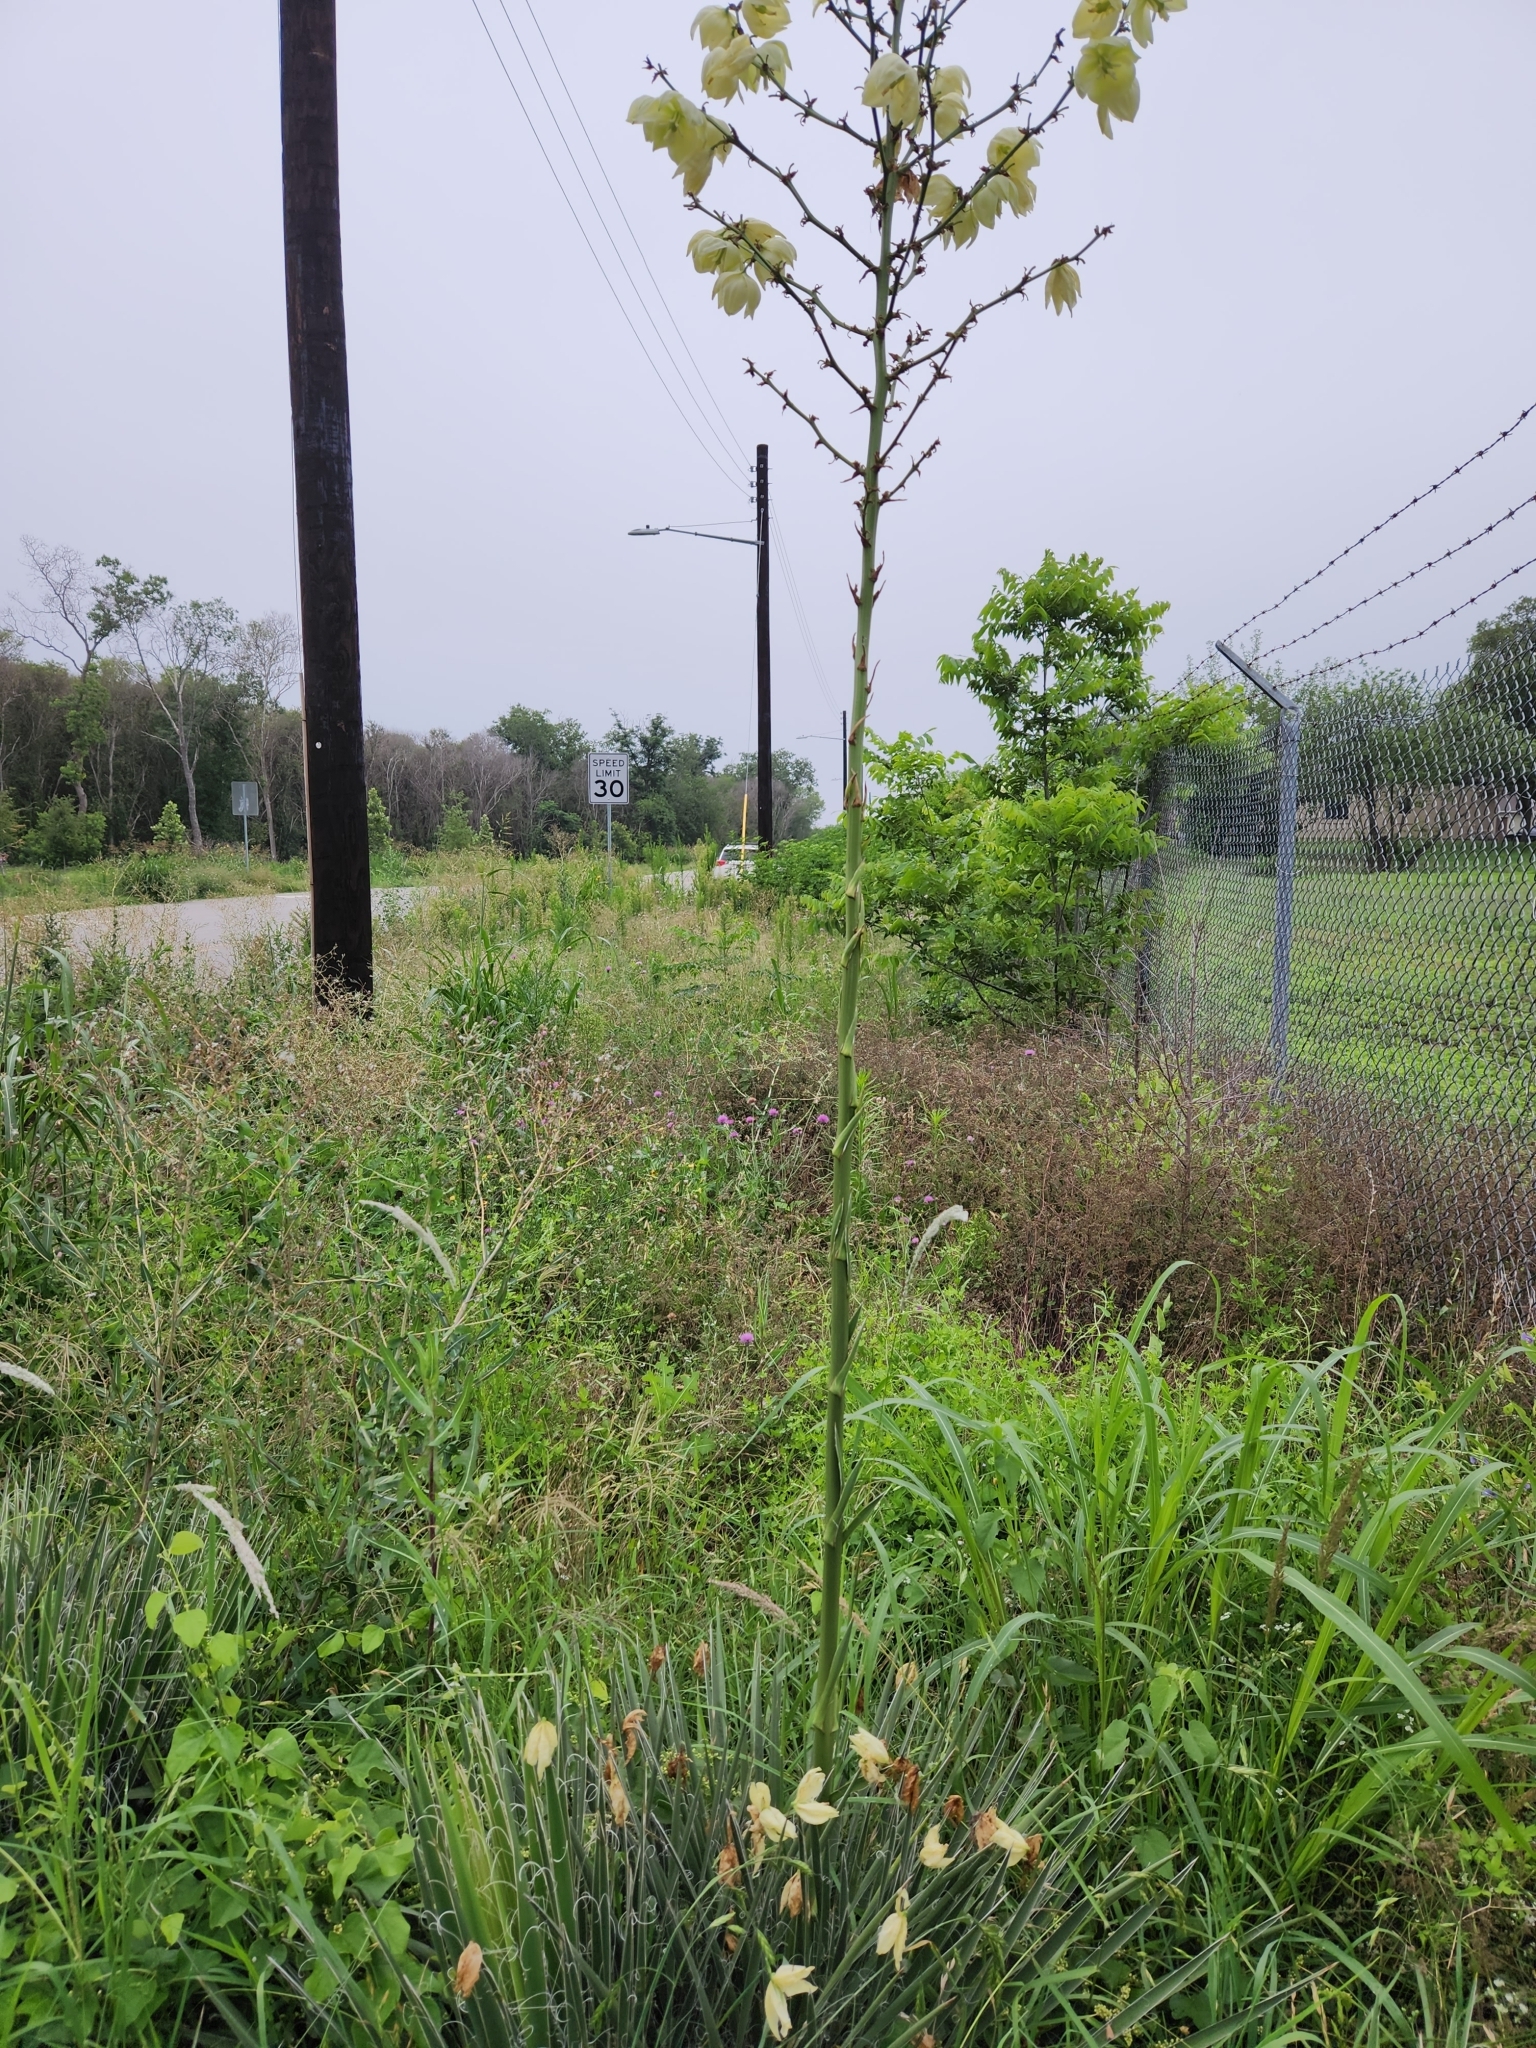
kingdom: Plantae
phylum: Tracheophyta
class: Liliopsida
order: Asparagales
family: Asparagaceae
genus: Yucca
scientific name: Yucca constricta
